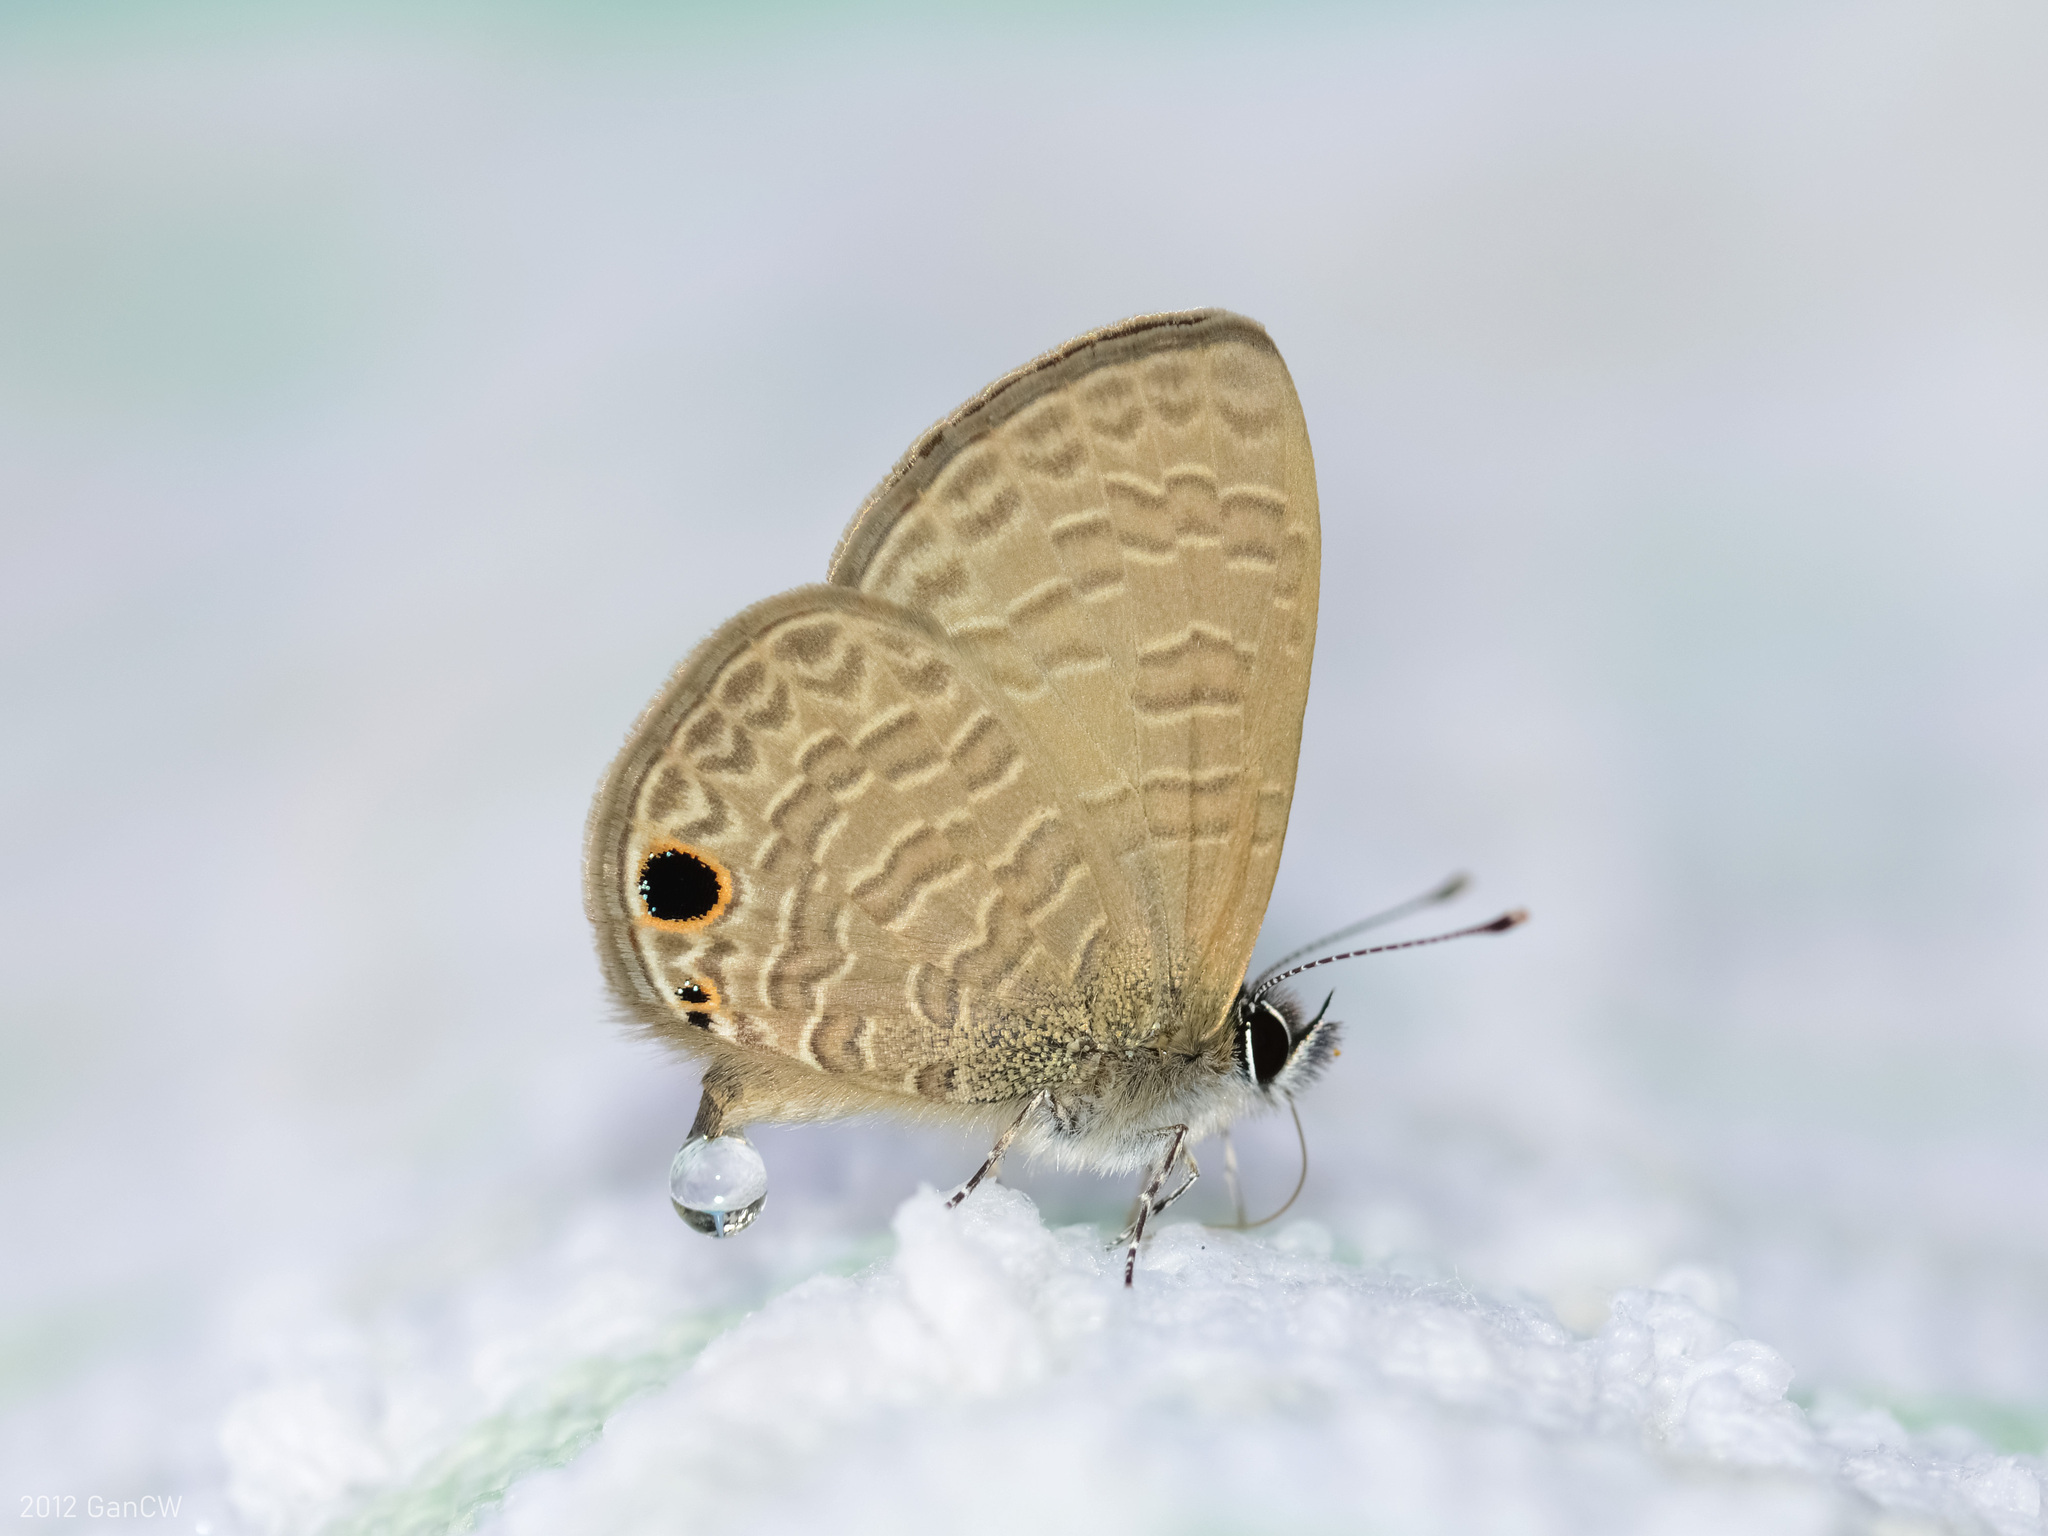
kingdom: Animalia
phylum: Arthropoda
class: Insecta
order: Lepidoptera
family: Lycaenidae
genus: Prosotas
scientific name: Prosotas dubiosa
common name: Tailless lineblue
